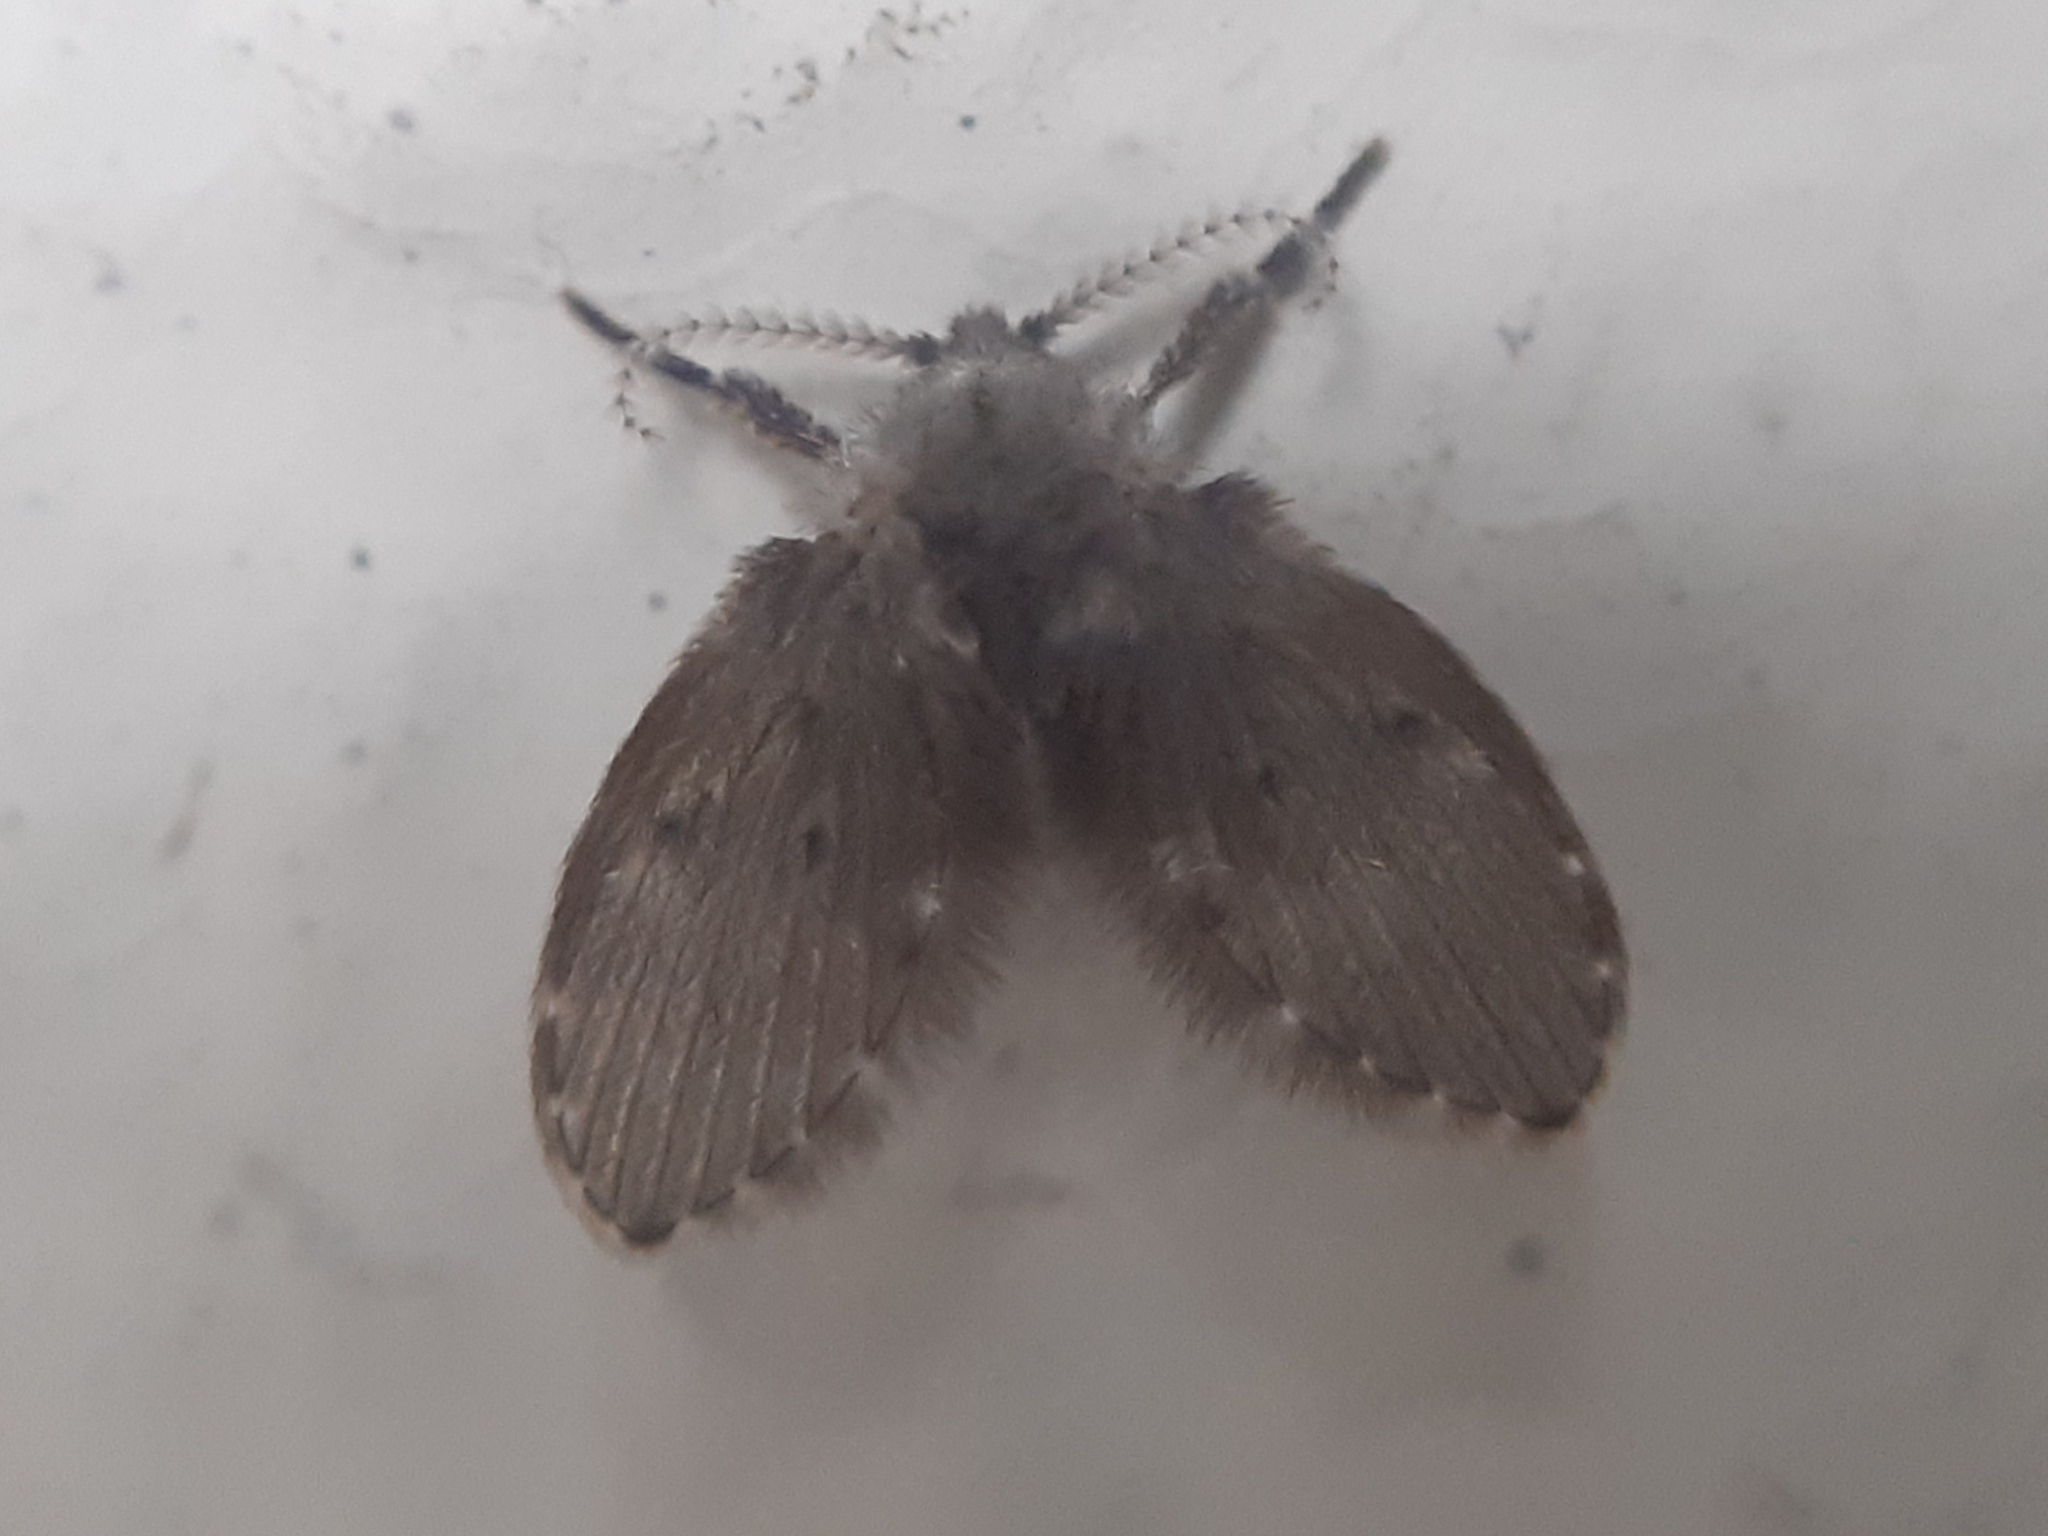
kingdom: Animalia
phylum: Arthropoda
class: Insecta
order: Diptera
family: Psychodidae
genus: Clogmia
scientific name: Clogmia albipunctatus
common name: White-spotted moth fly
